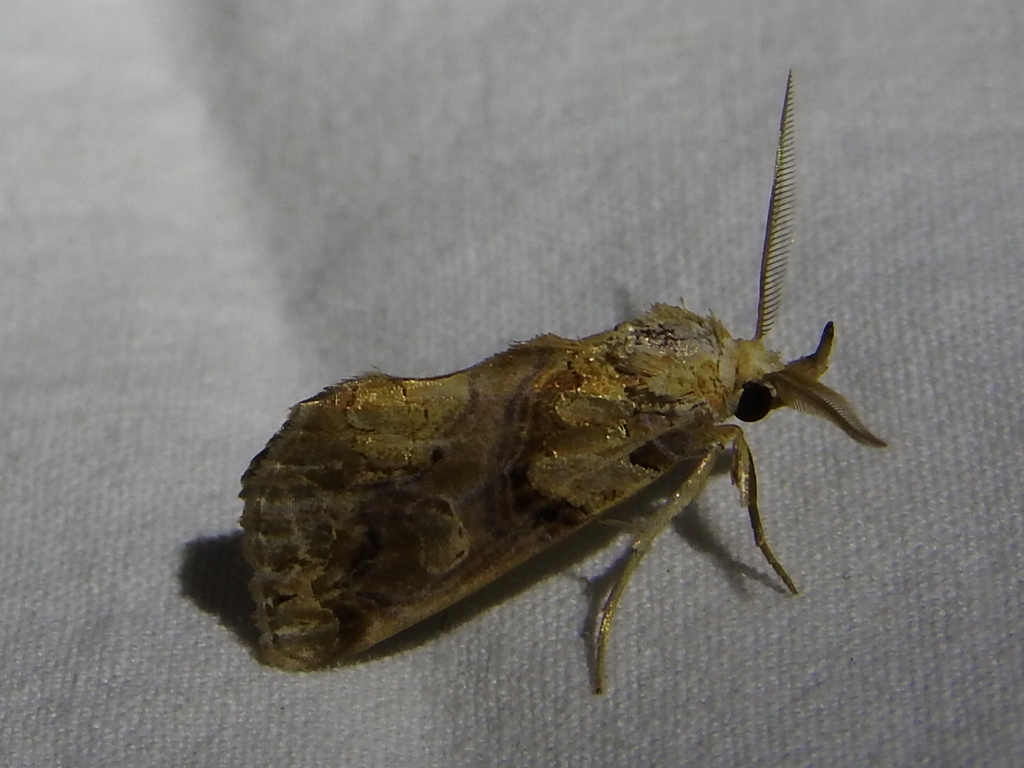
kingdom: Animalia
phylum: Arthropoda
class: Insecta
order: Lepidoptera
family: Erebidae
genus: Plusiodonta
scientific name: Plusiodonta compressipalpis
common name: Moonseed moth
